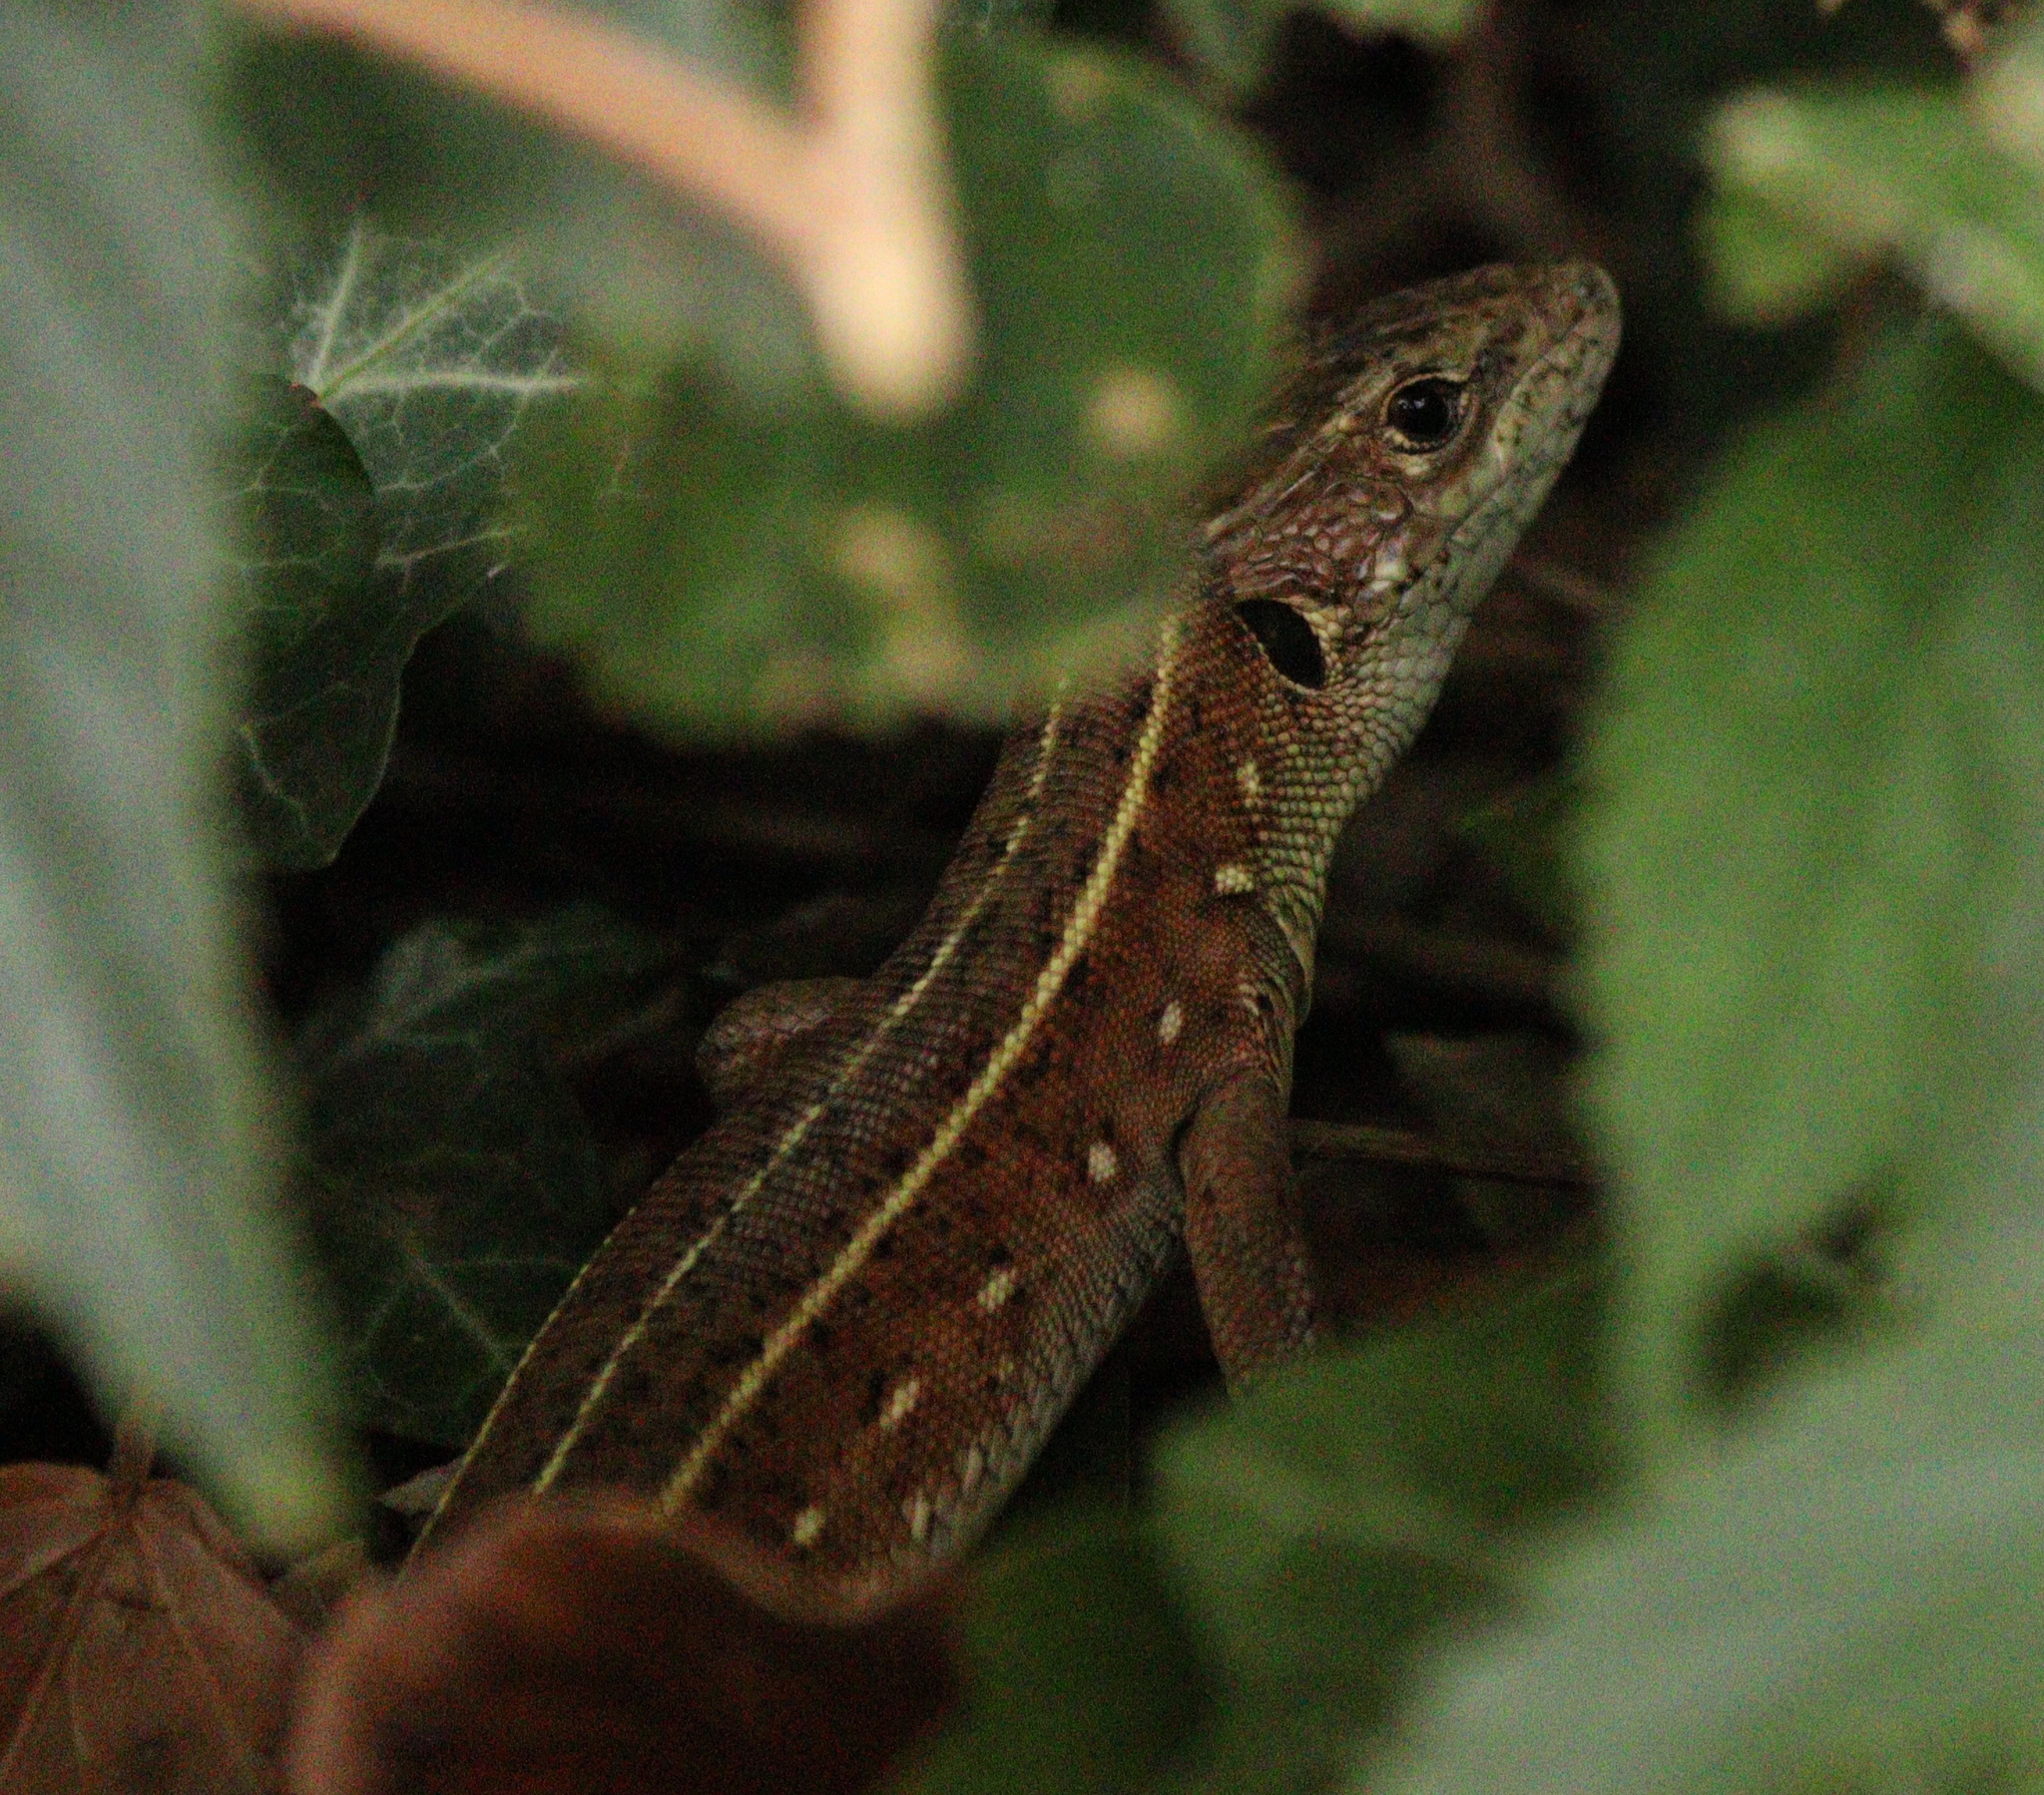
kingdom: Animalia
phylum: Chordata
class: Squamata
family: Lacertidae
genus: Lacerta
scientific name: Lacerta trilineata
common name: Balkan green lizard
